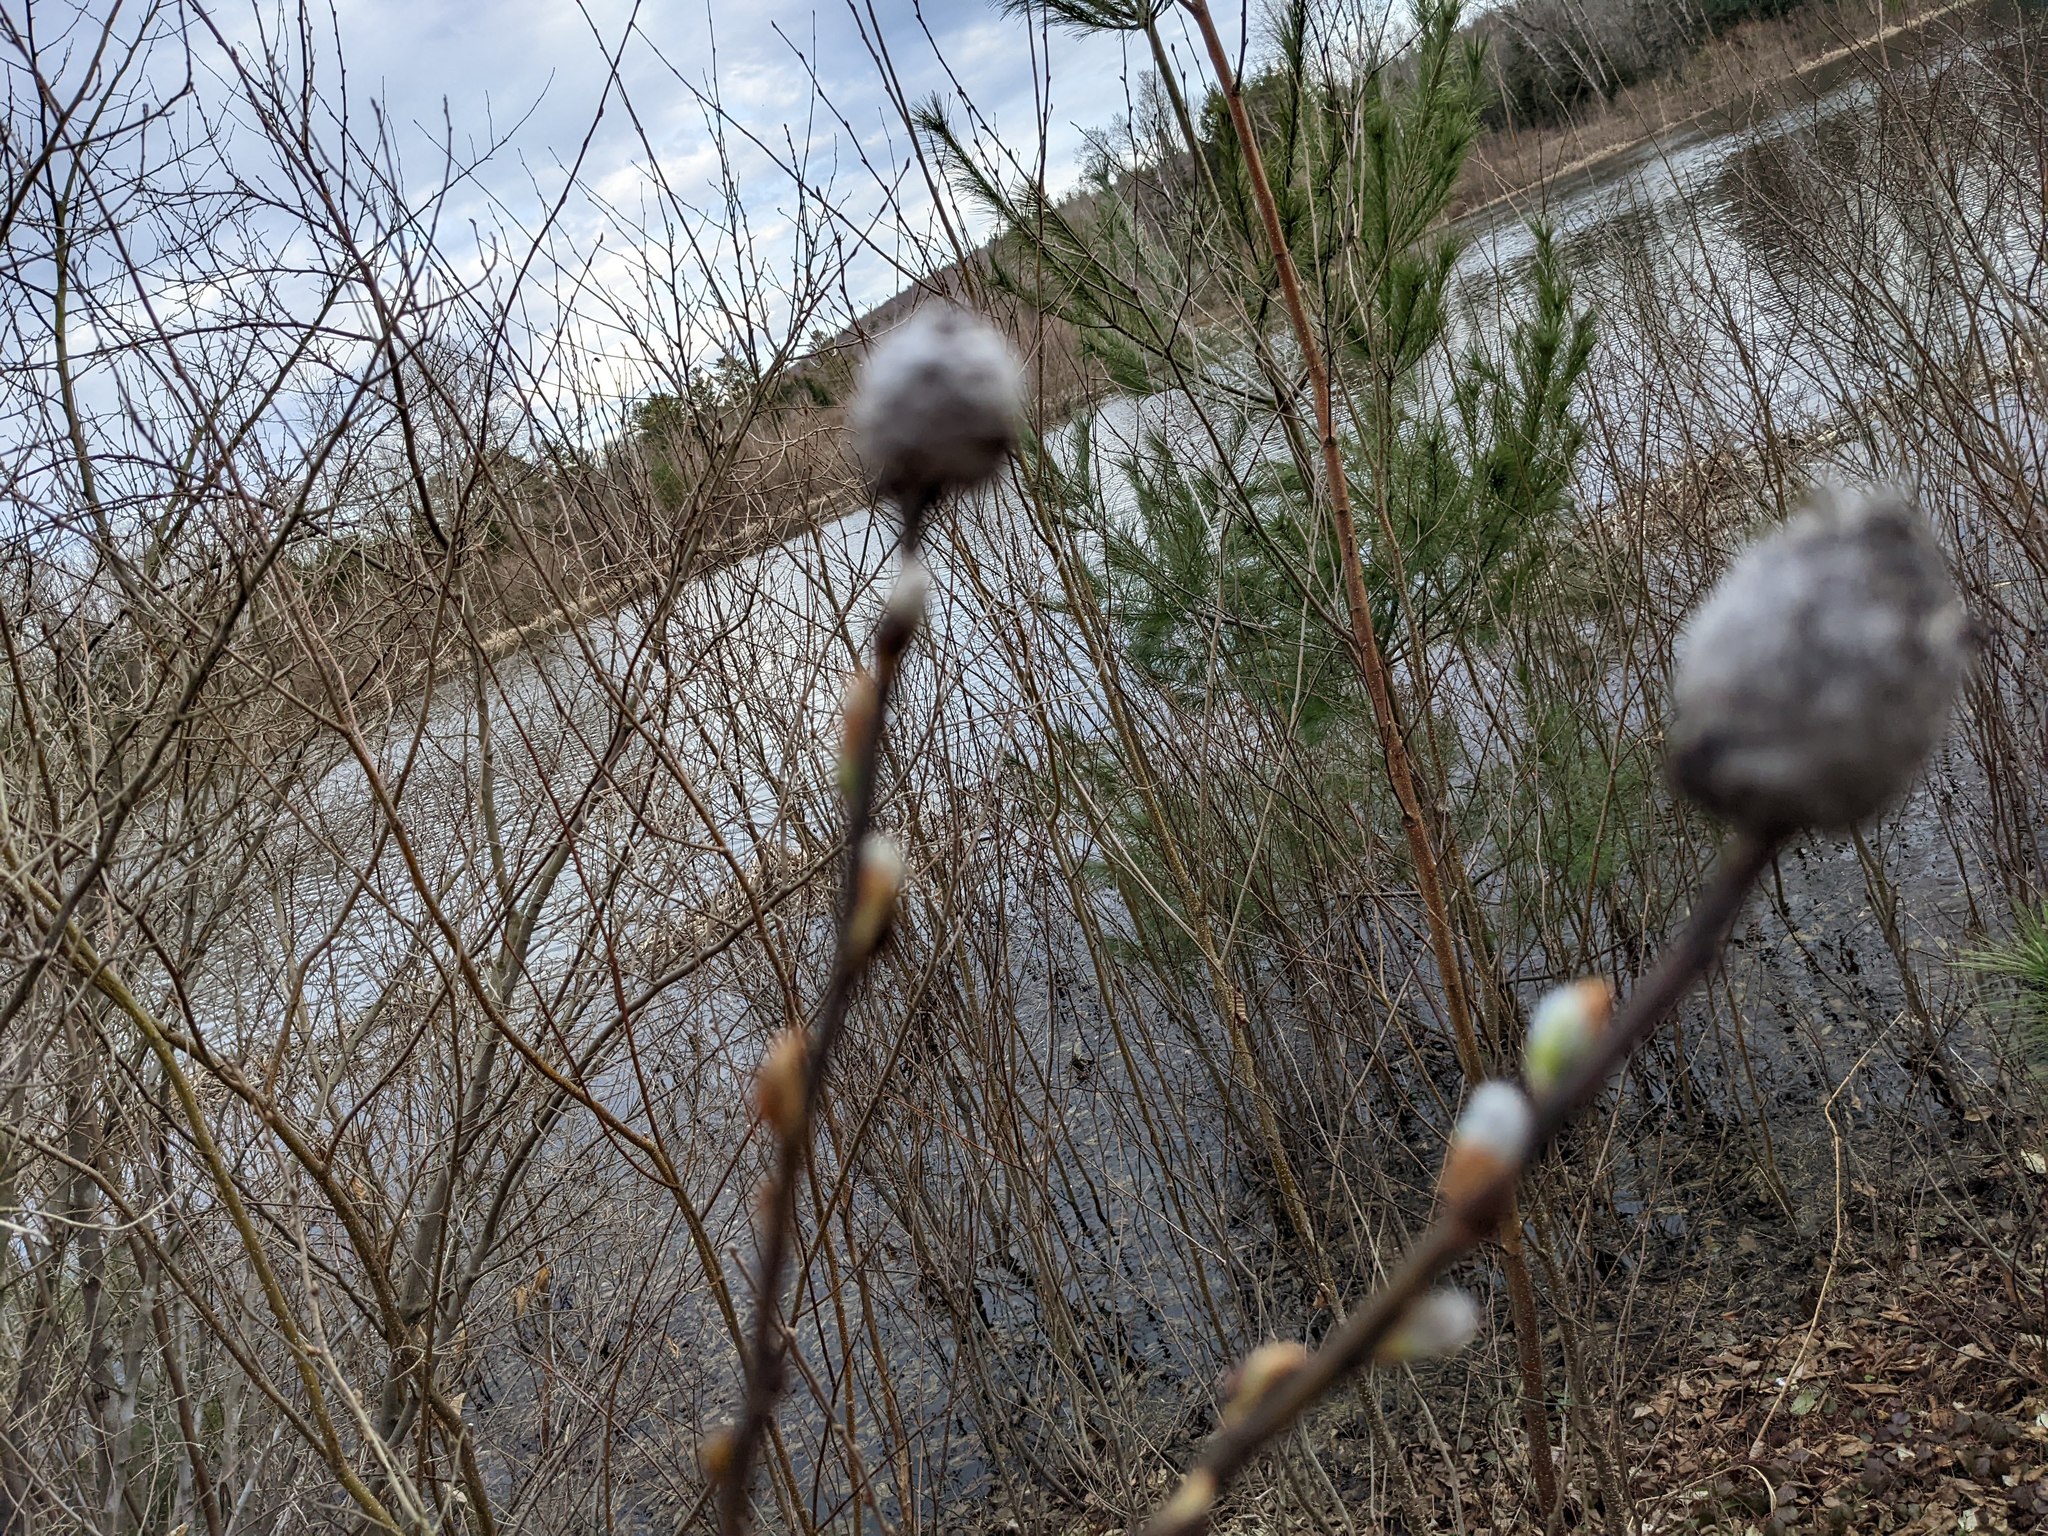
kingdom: Animalia
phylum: Arthropoda
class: Insecta
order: Diptera
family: Cecidomyiidae
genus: Rabdophaga
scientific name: Rabdophaga strobiloides
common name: Willow pinecone gall midge
